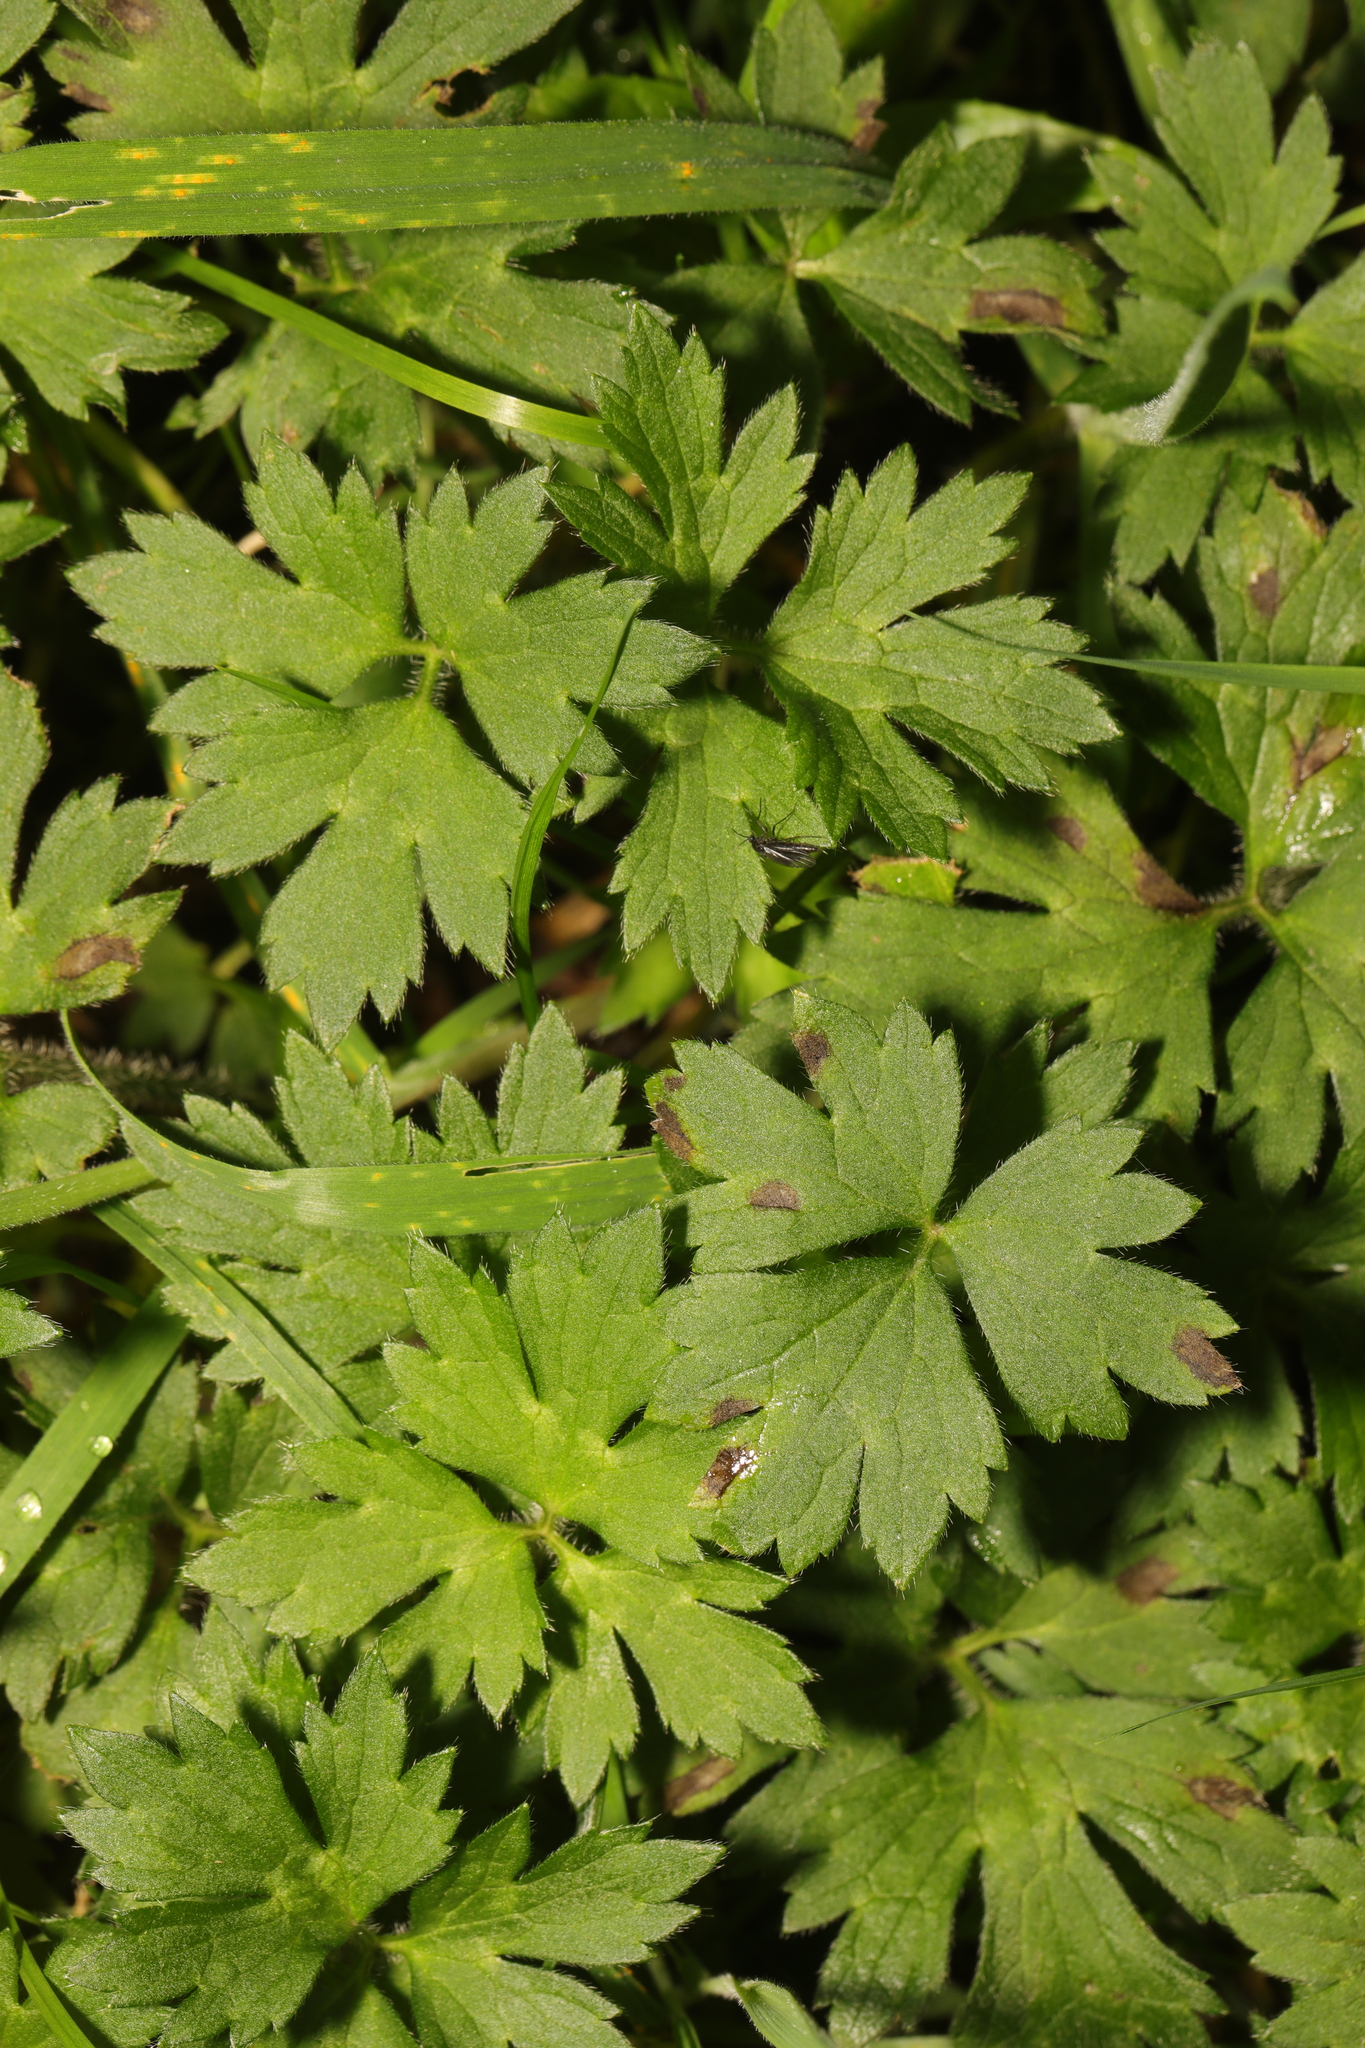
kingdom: Plantae
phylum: Tracheophyta
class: Magnoliopsida
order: Ranunculales
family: Ranunculaceae
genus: Ranunculus
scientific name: Ranunculus repens
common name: Creeping buttercup
